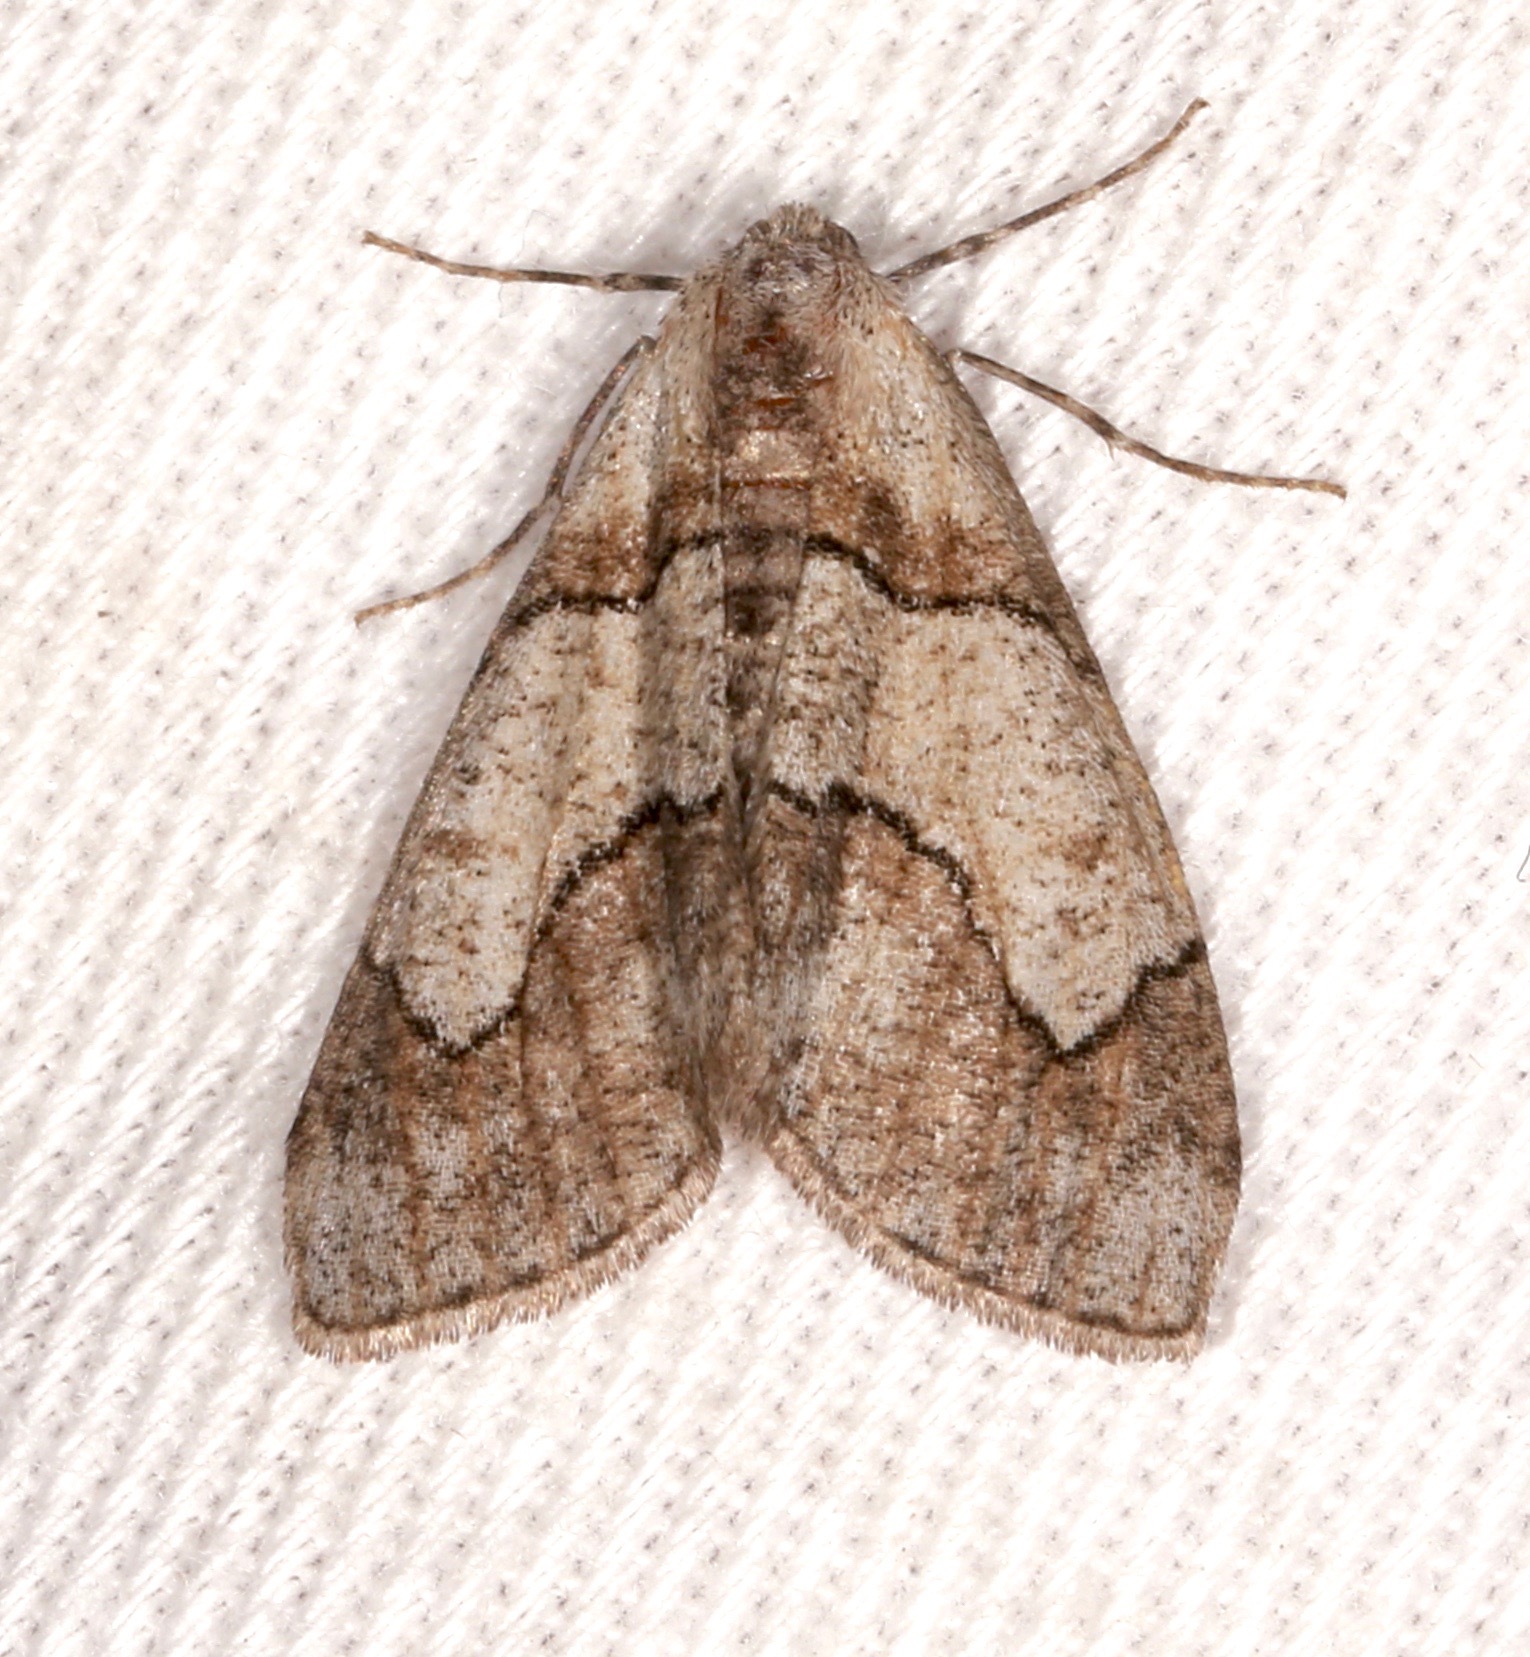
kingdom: Animalia
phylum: Arthropoda
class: Insecta
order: Lepidoptera
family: Geometridae
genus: Gabriola
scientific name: Gabriola regularia
